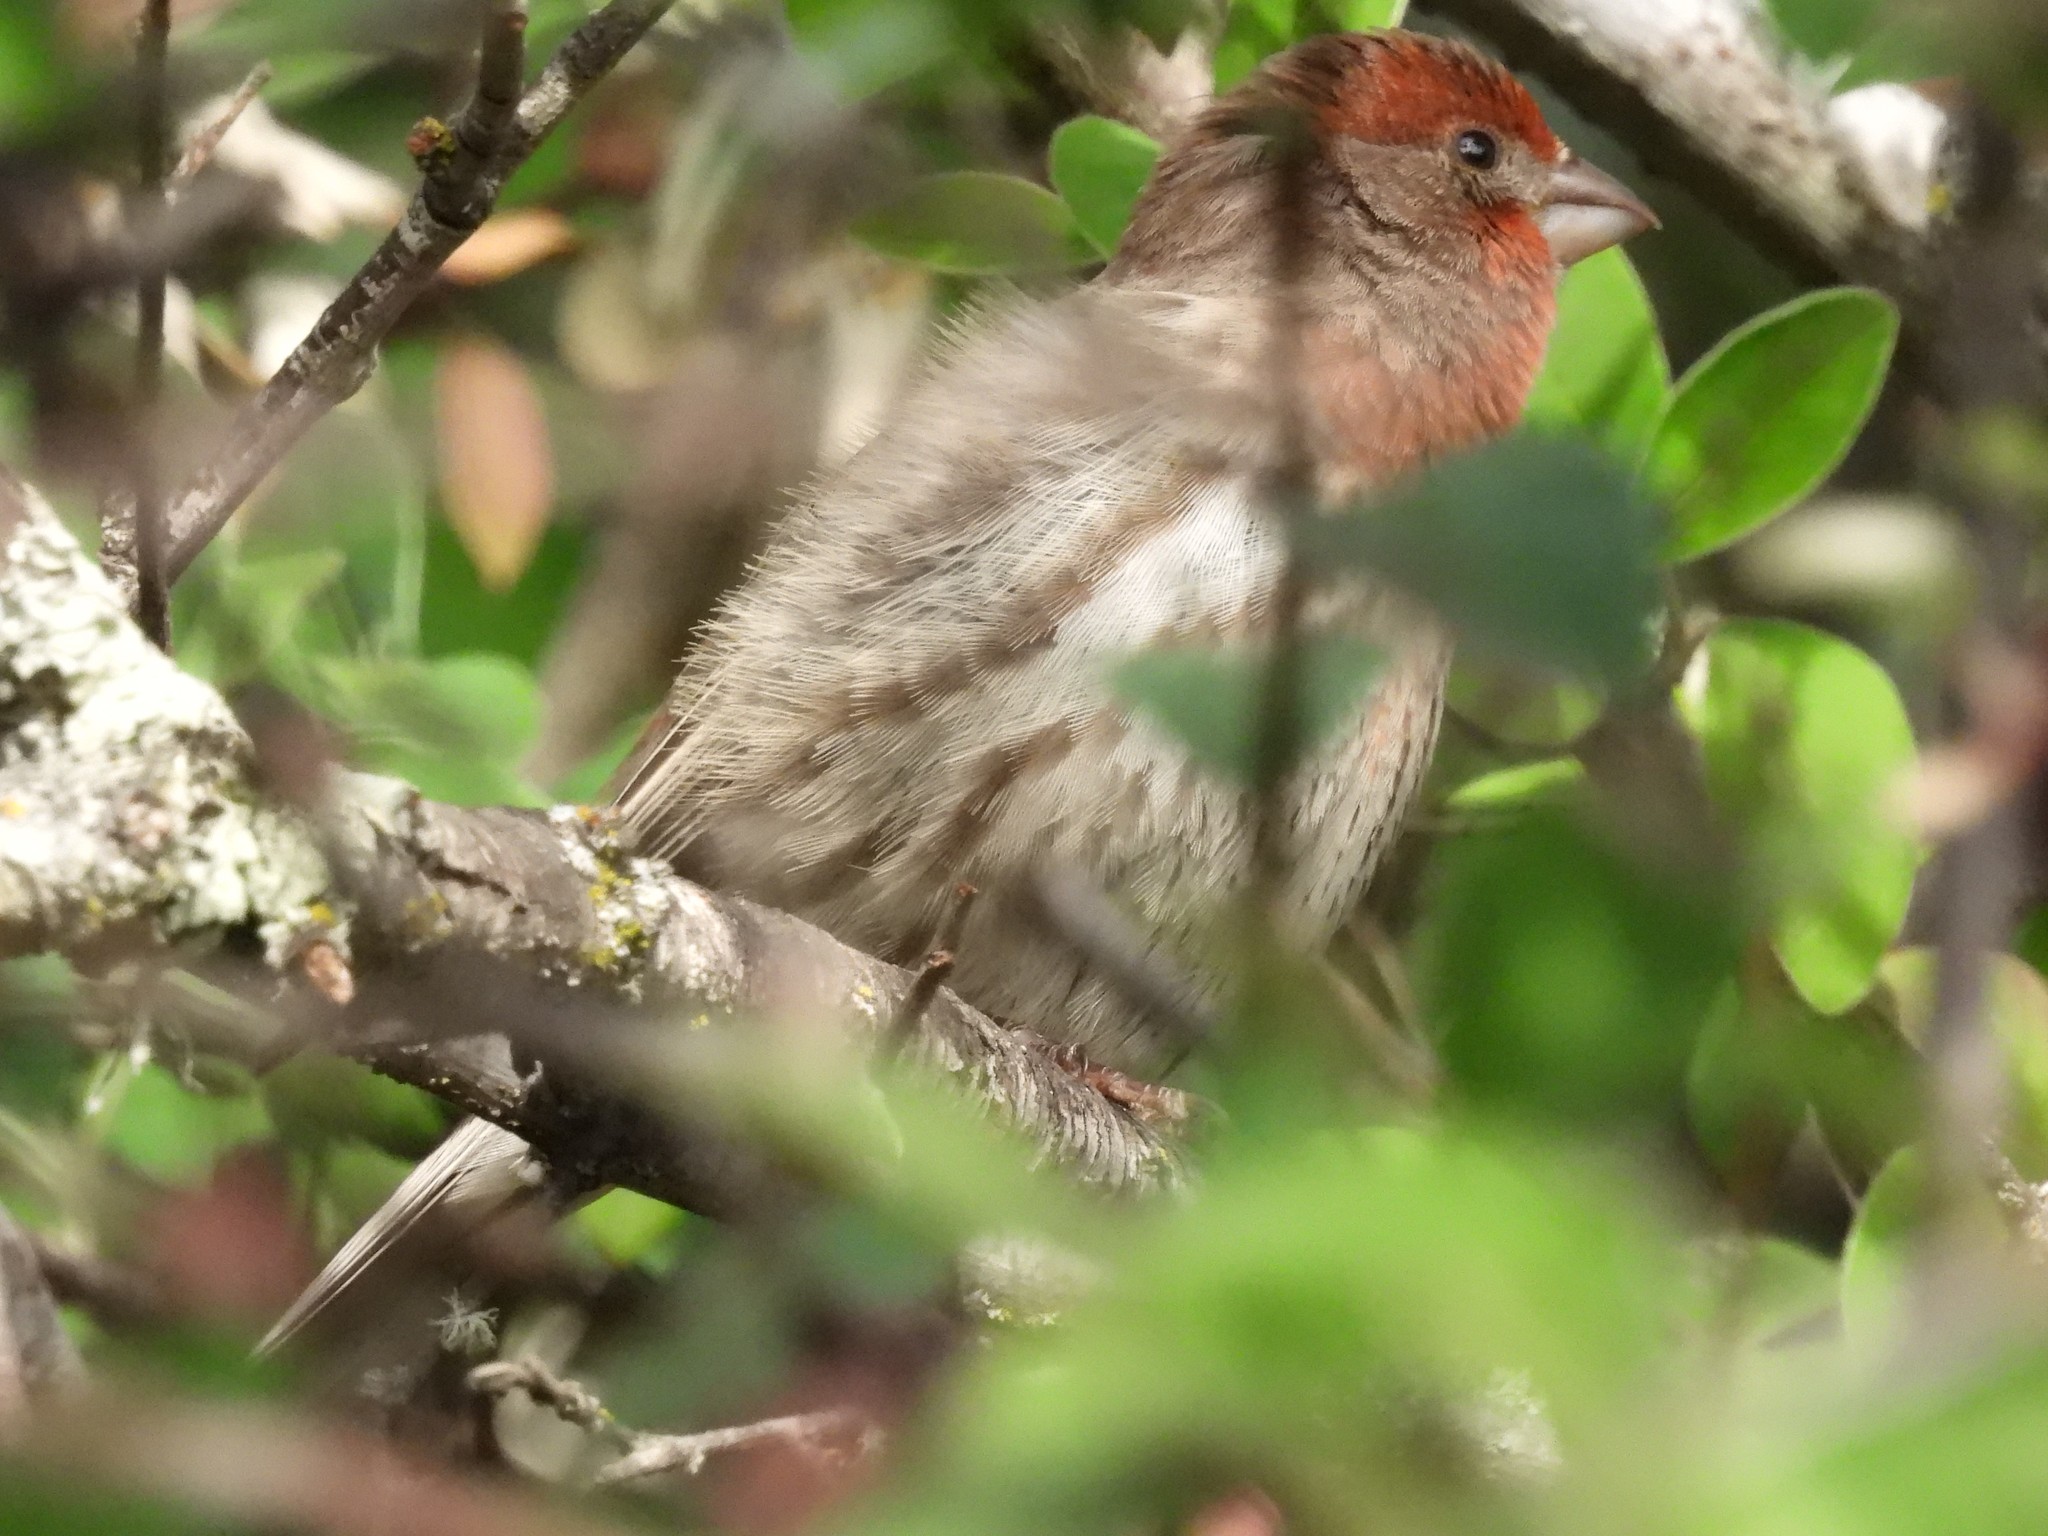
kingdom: Animalia
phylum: Chordata
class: Aves
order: Passeriformes
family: Fringillidae
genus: Haemorhous
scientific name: Haemorhous mexicanus
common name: House finch
